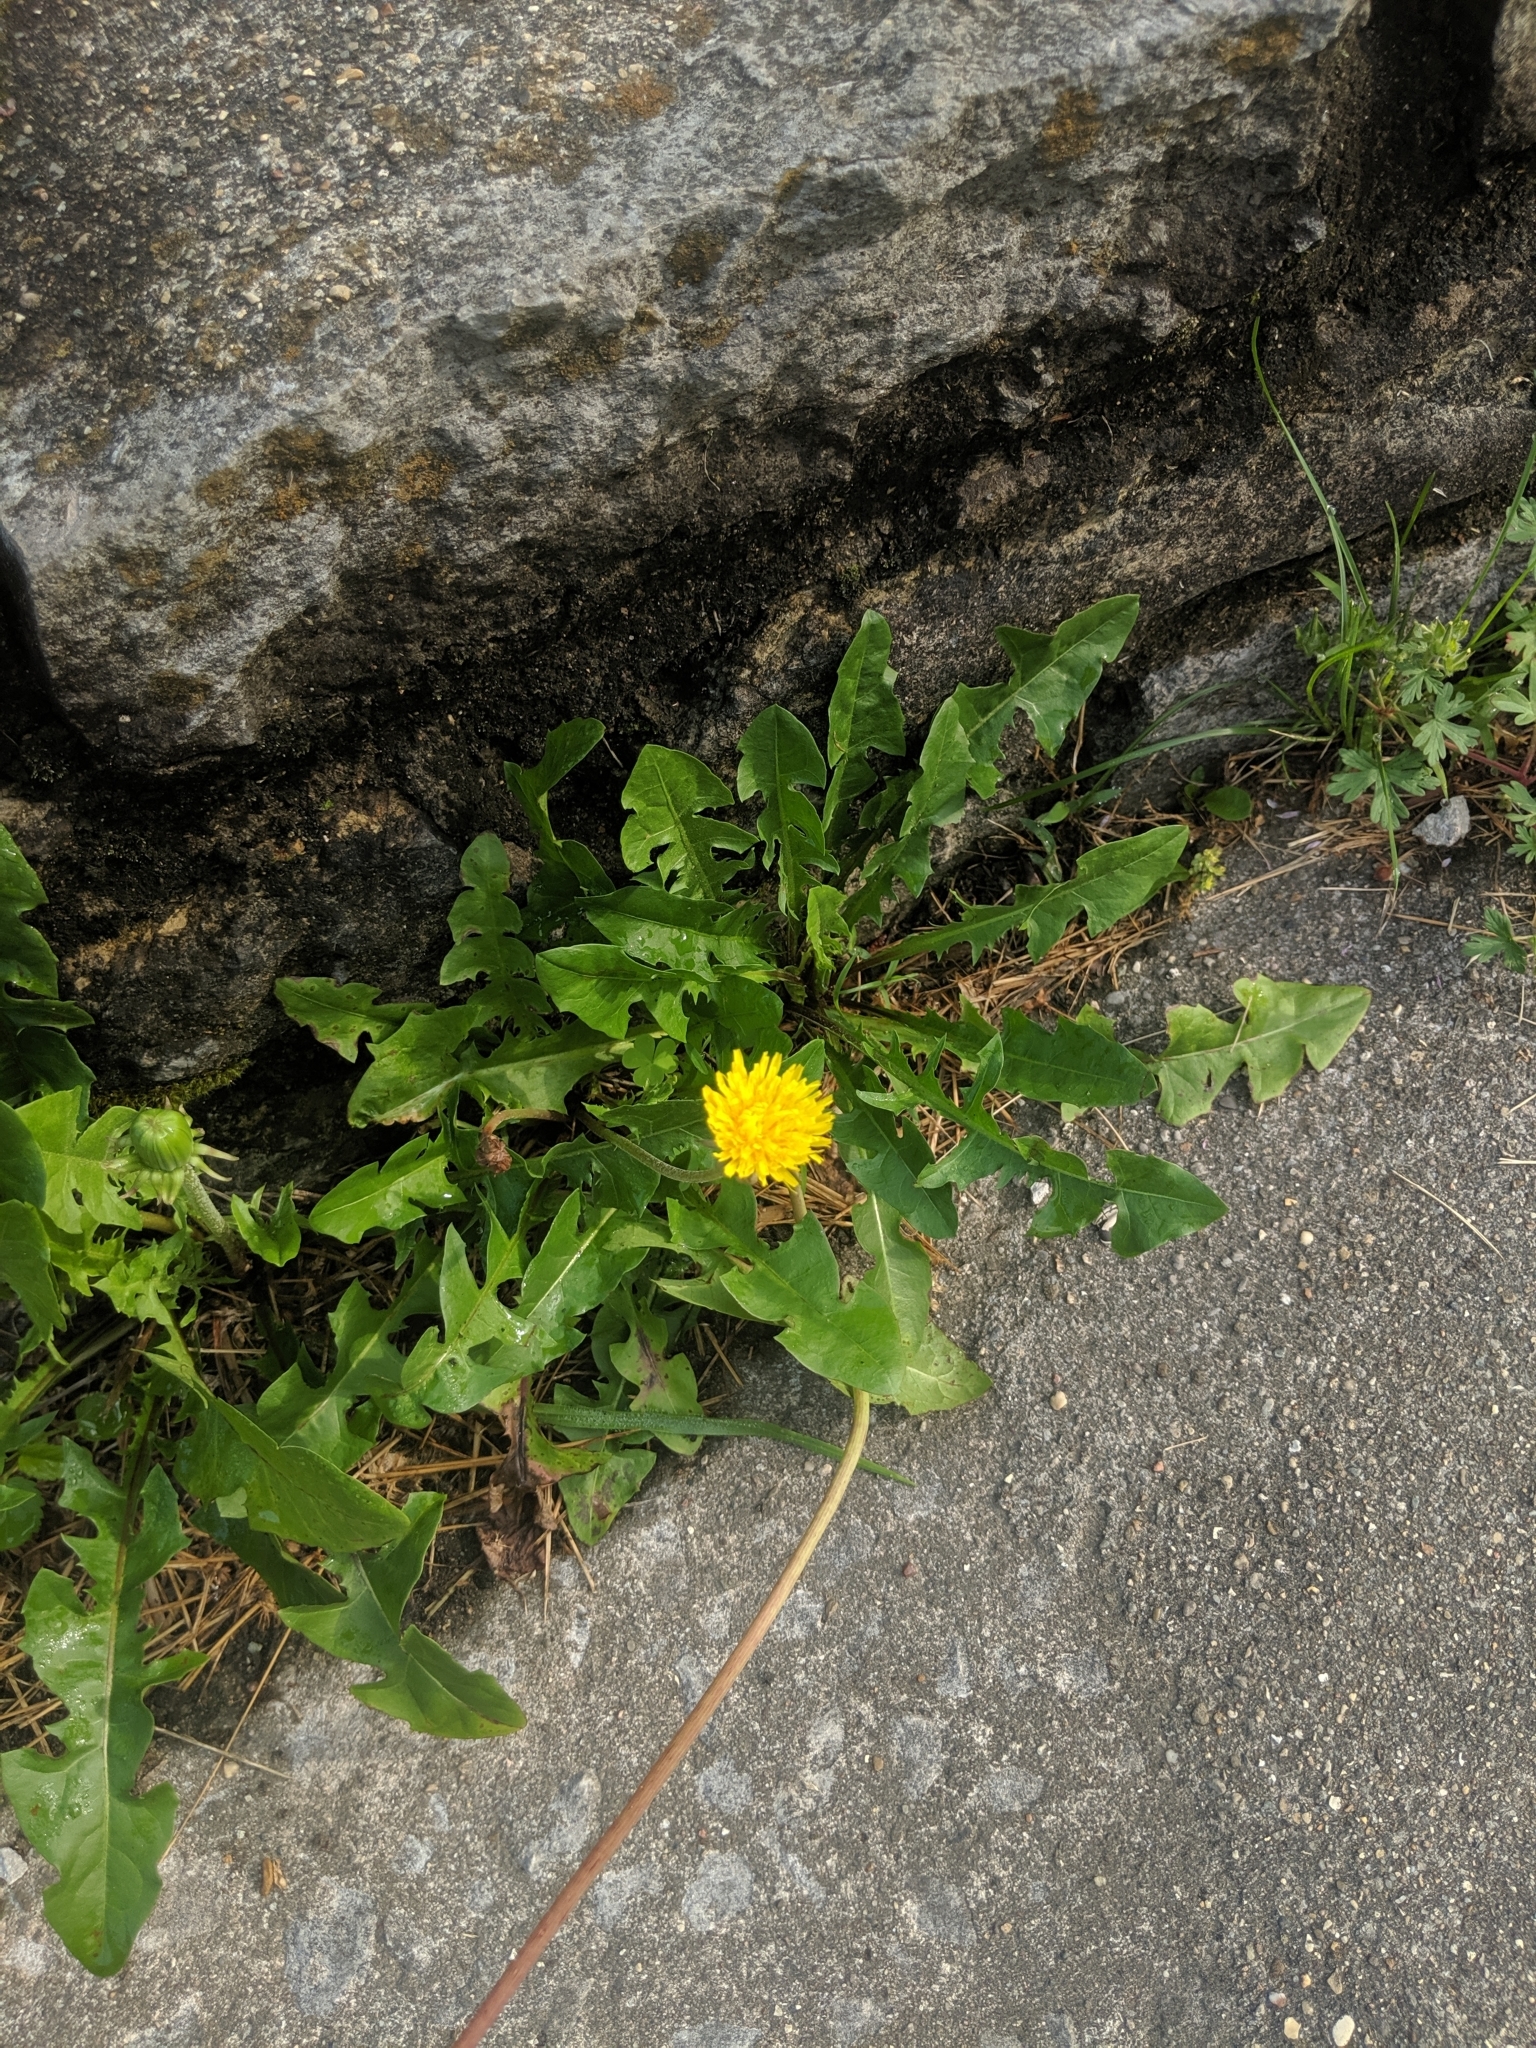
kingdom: Plantae
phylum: Tracheophyta
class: Magnoliopsida
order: Asterales
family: Asteraceae
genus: Taraxacum
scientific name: Taraxacum officinale
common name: Common dandelion
